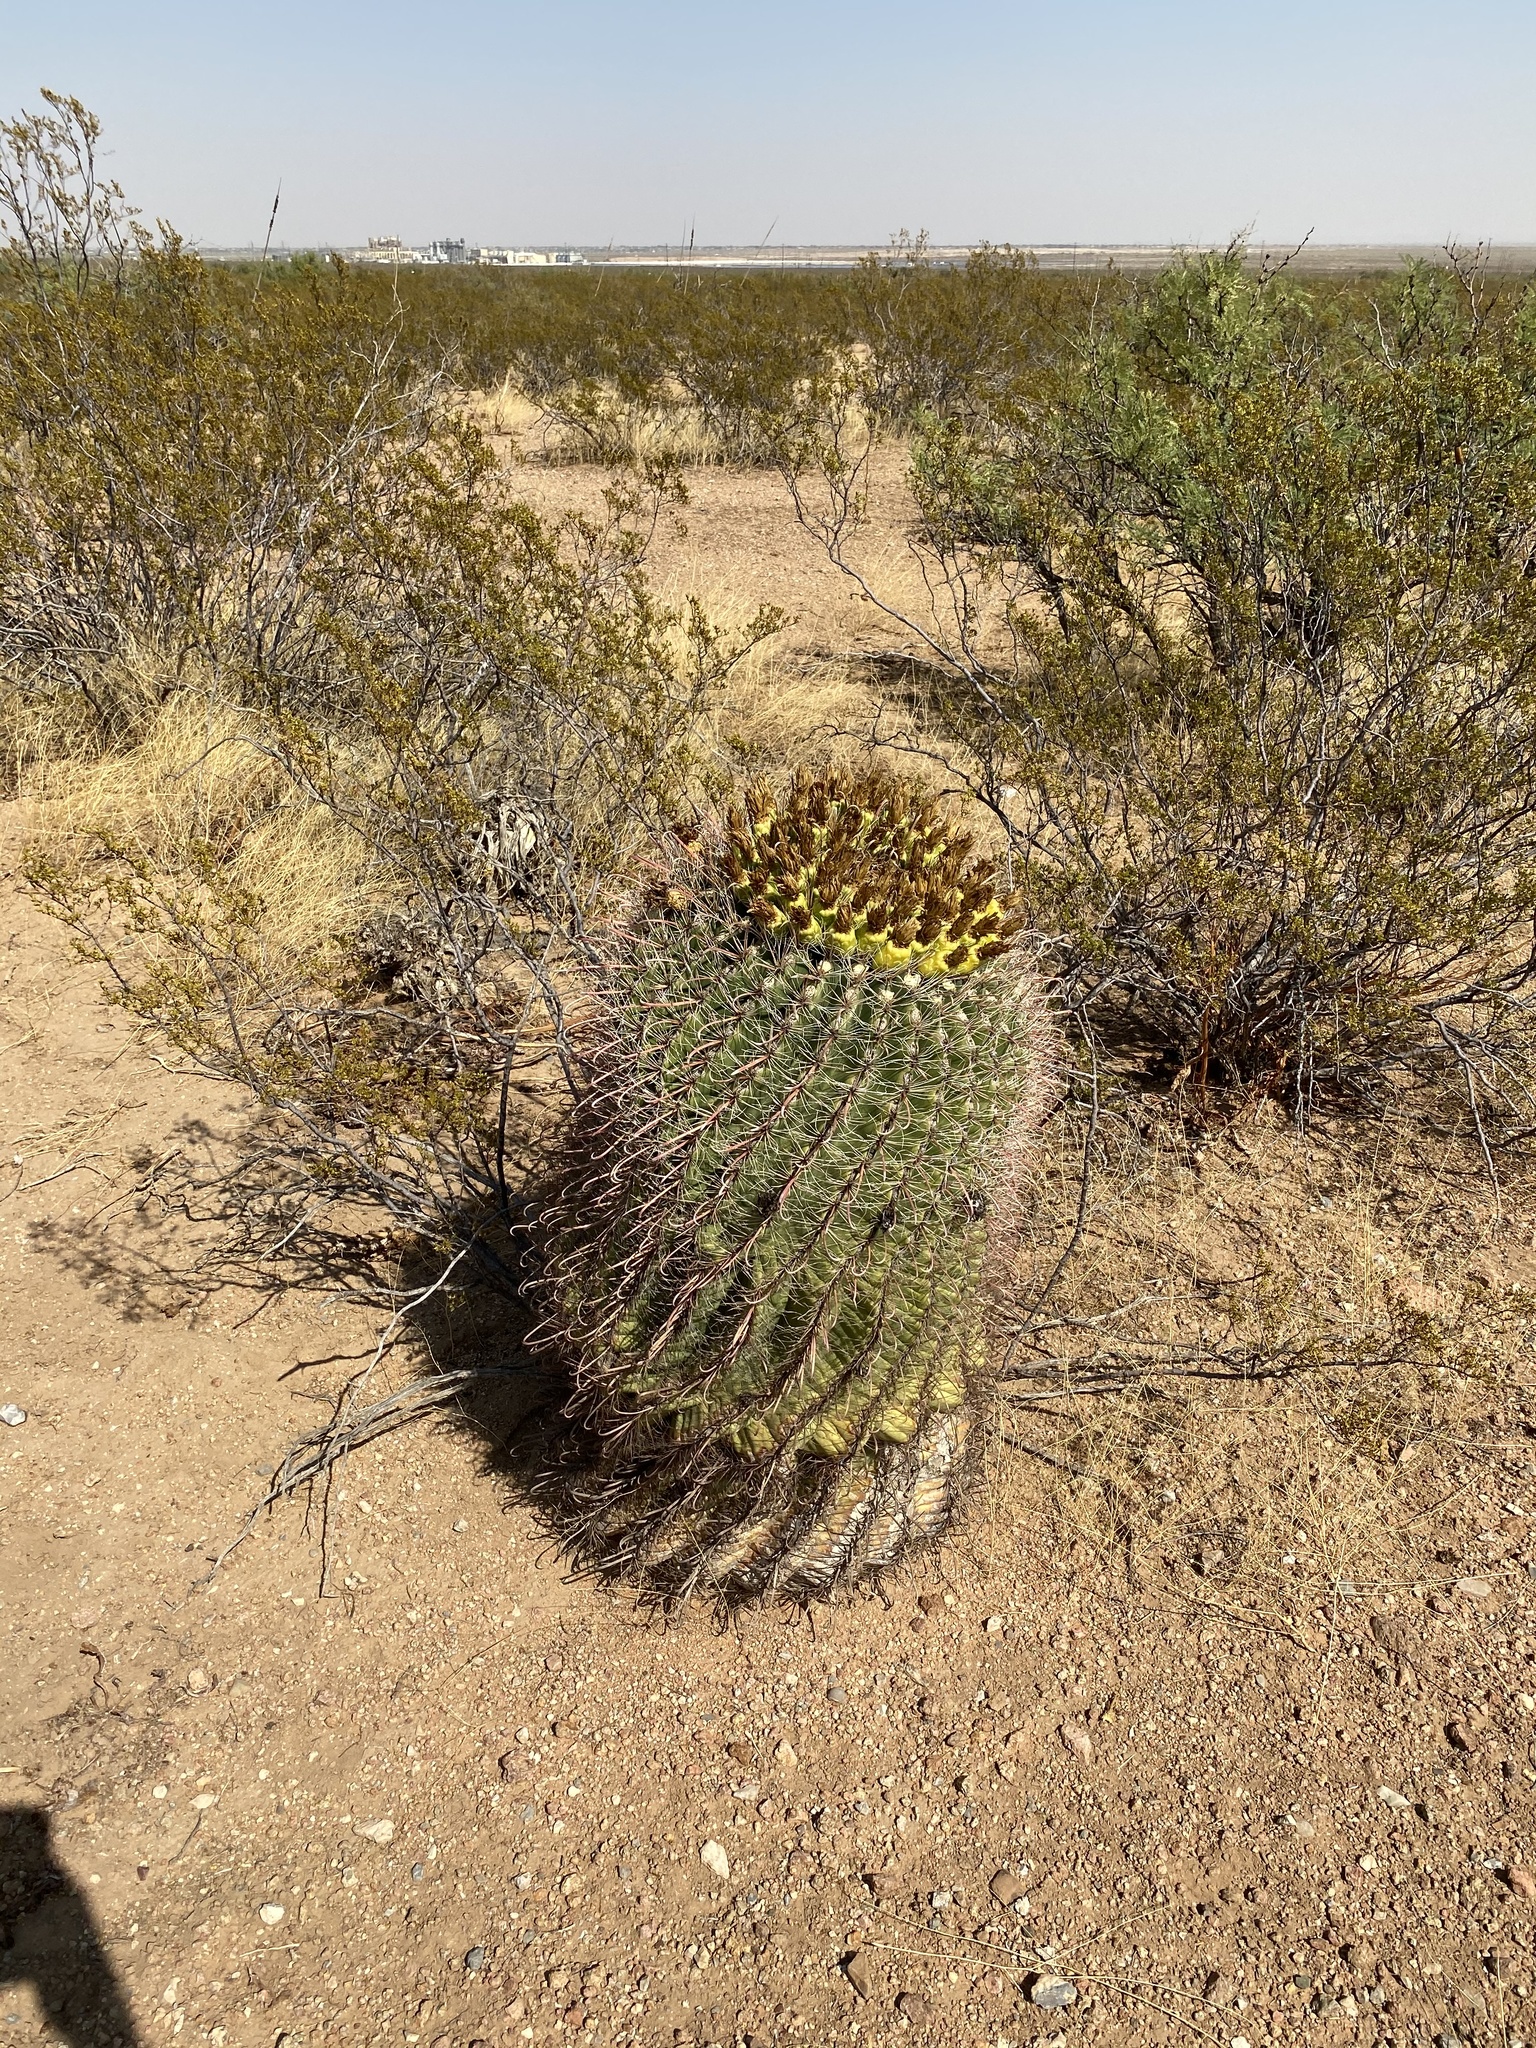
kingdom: Plantae
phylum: Tracheophyta
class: Magnoliopsida
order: Caryophyllales
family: Cactaceae
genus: Ferocactus
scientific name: Ferocactus wislizeni
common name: Candy barrel cactus
